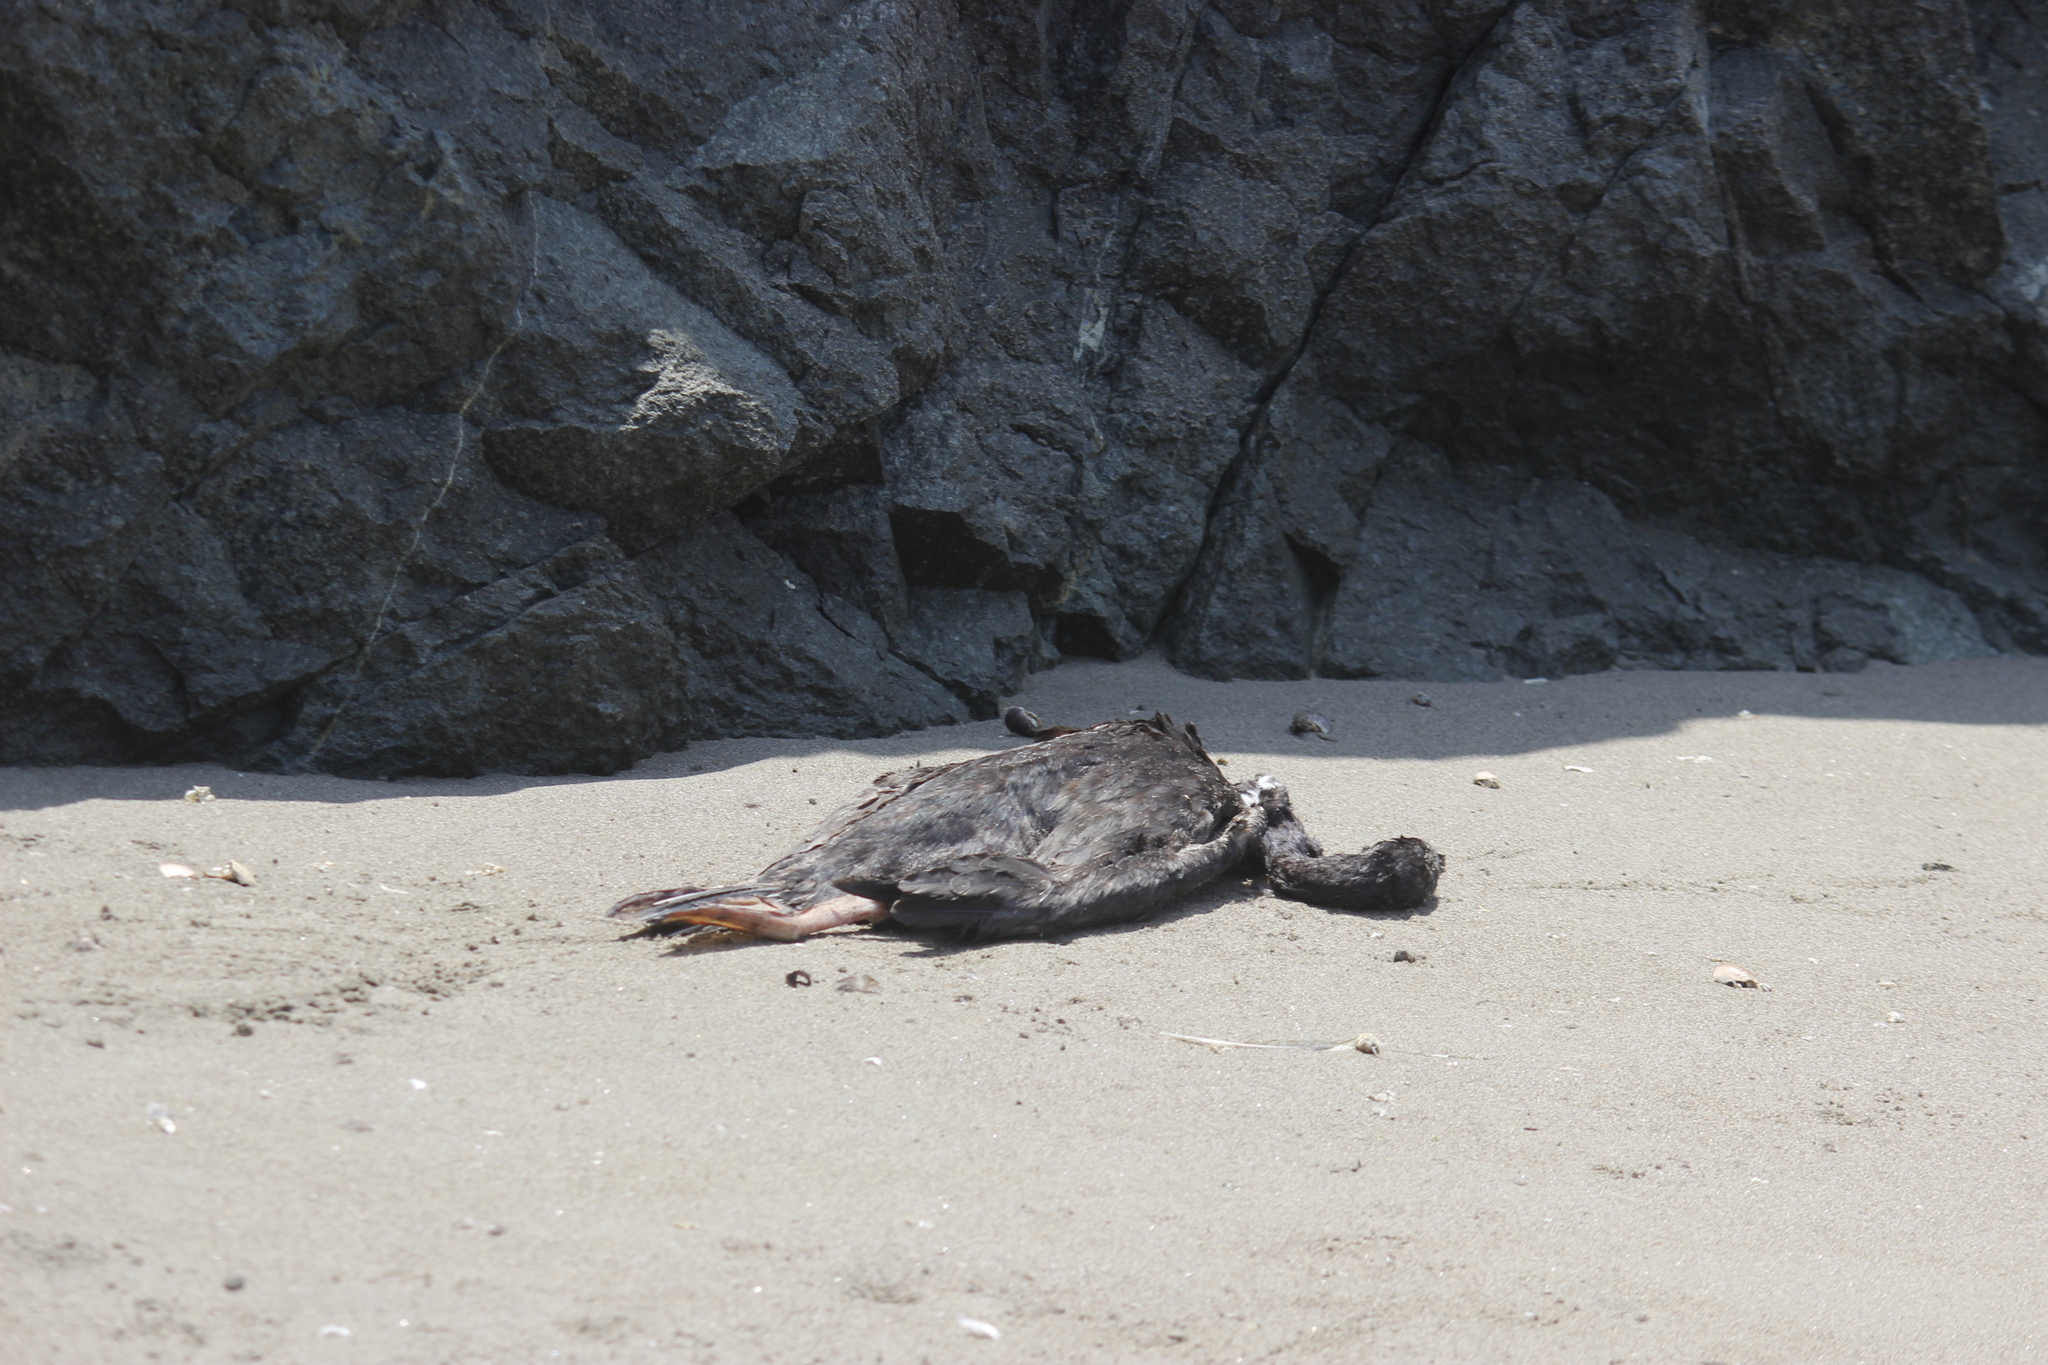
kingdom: Animalia
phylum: Chordata
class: Aves
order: Suliformes
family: Phalacrocoracidae
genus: Leucocarbo
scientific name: Leucocarbo bougainvillii
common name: Guanay cormorant
